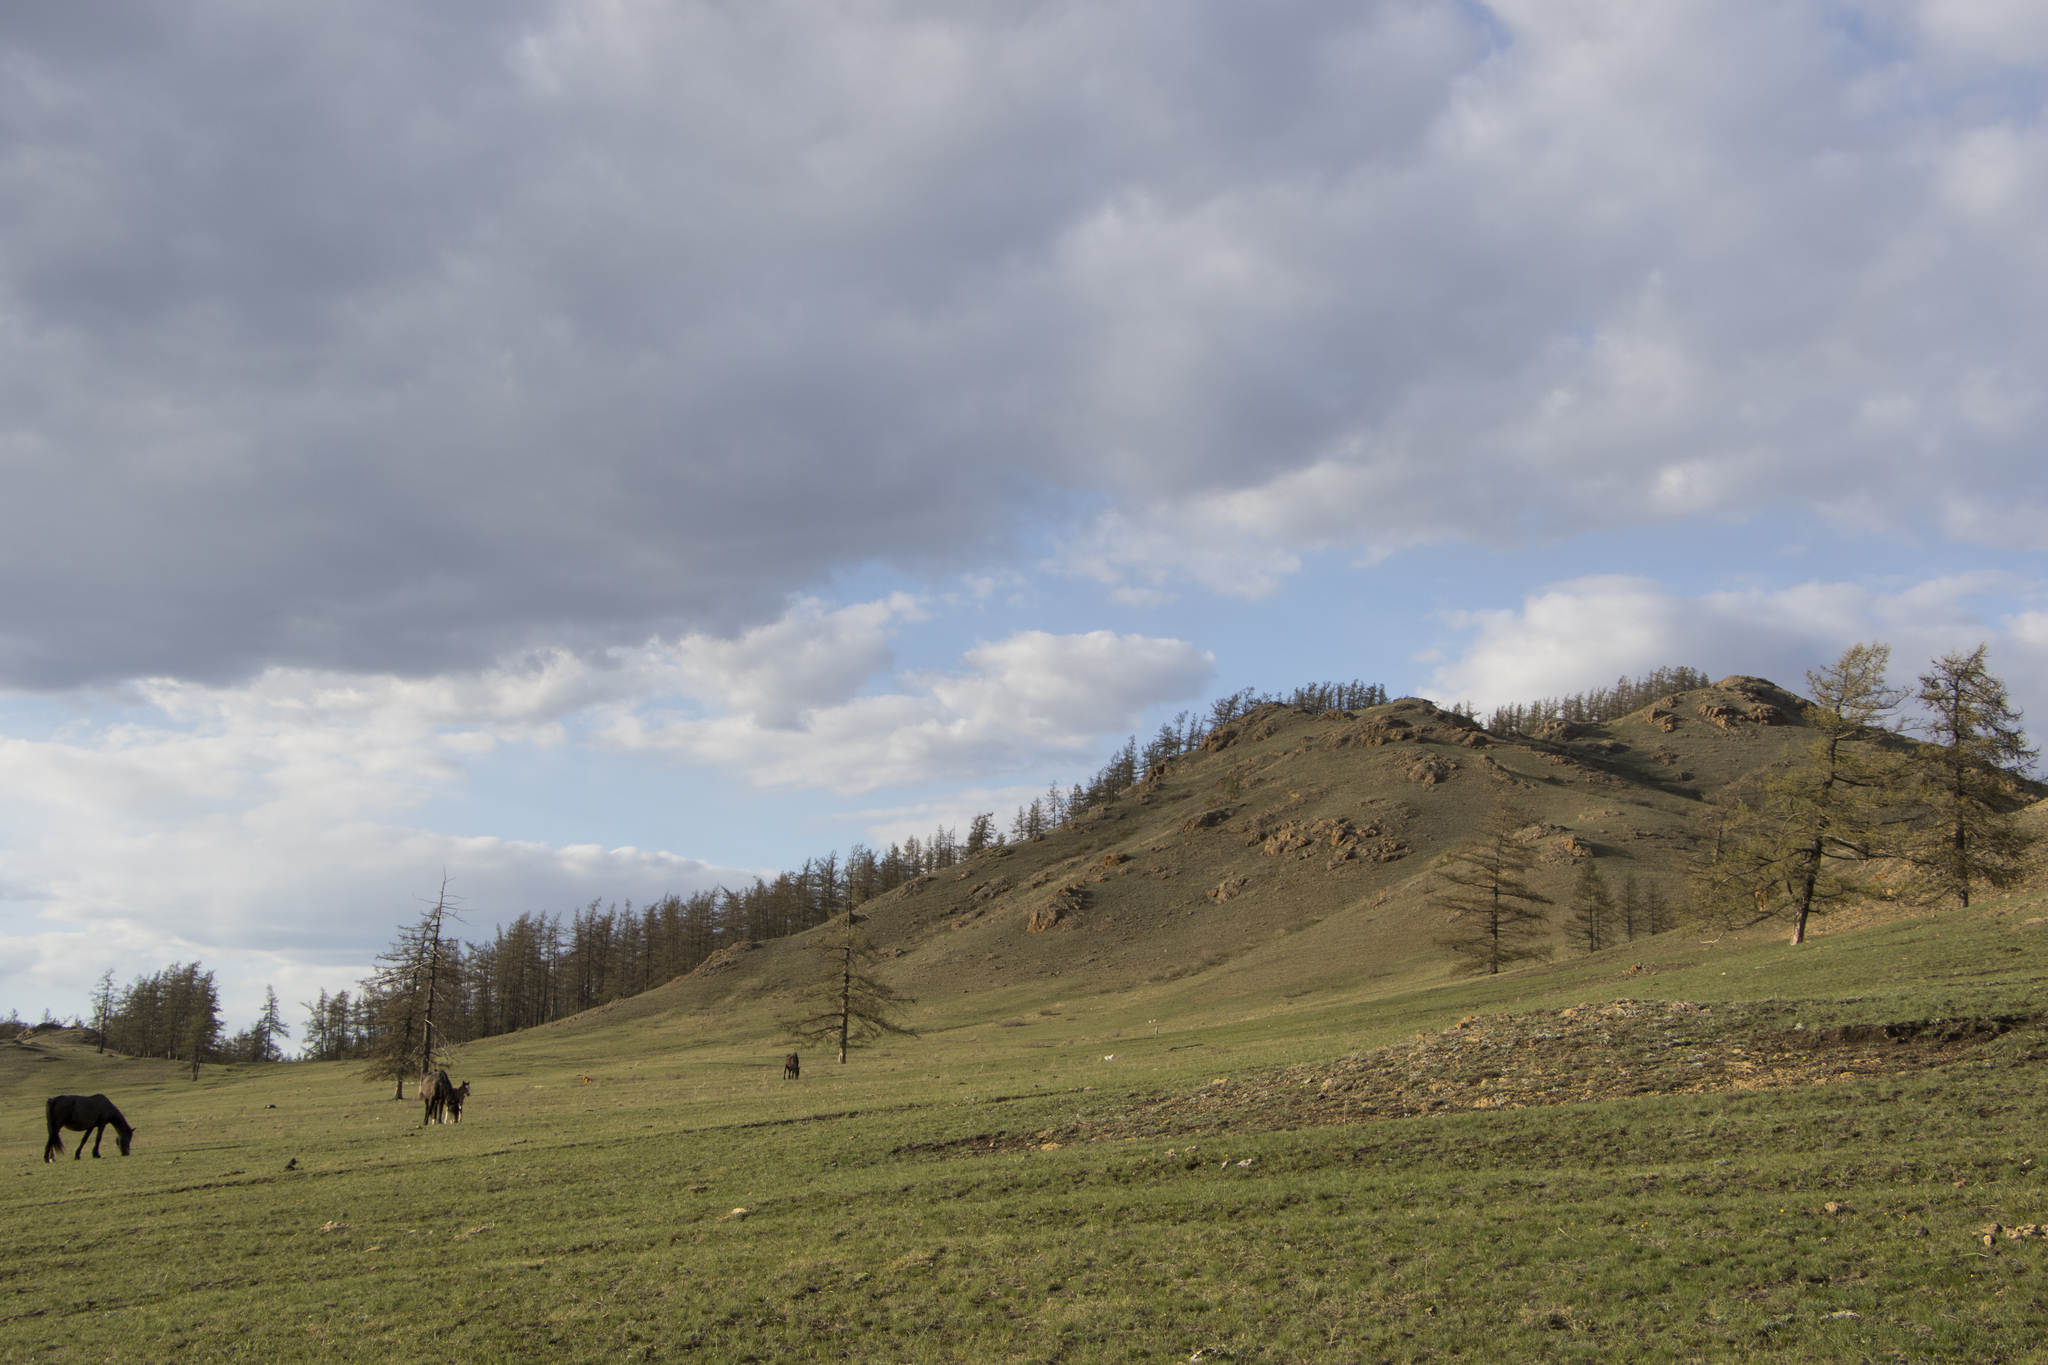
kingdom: Plantae
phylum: Tracheophyta
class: Pinopsida
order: Pinales
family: Pinaceae
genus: Larix
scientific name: Larix sibirica
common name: Siberian larch
